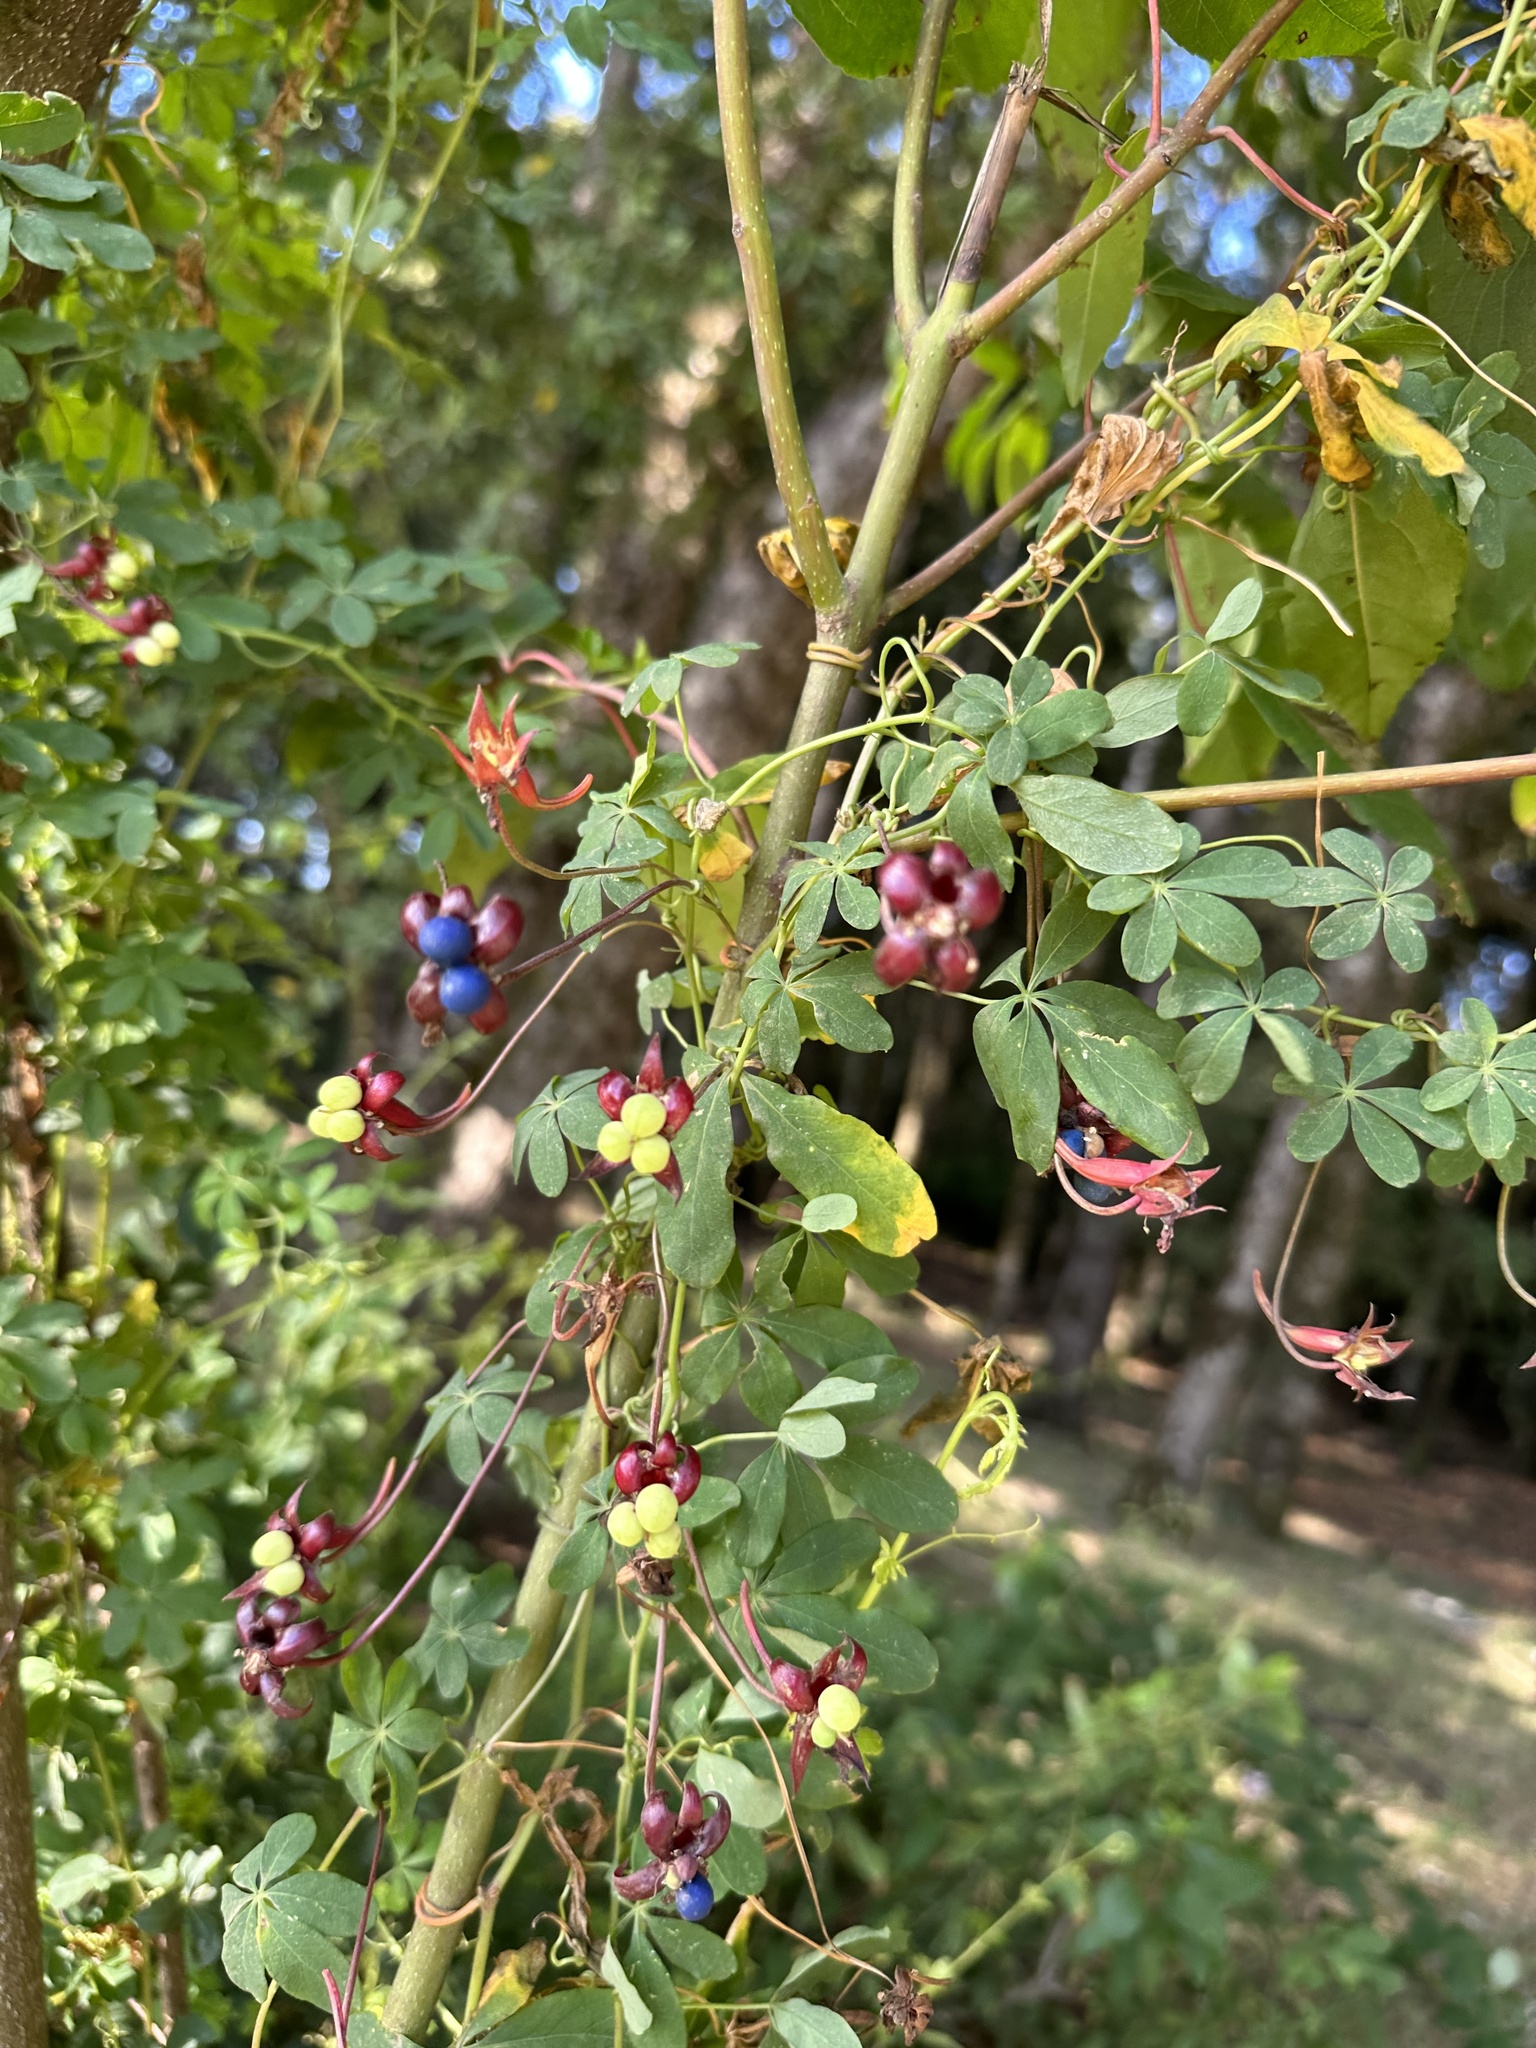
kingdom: Plantae
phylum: Tracheophyta
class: Magnoliopsida
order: Brassicales
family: Tropaeolaceae
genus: Tropaeolum
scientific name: Tropaeolum speciosum
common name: Flame nasturtium
